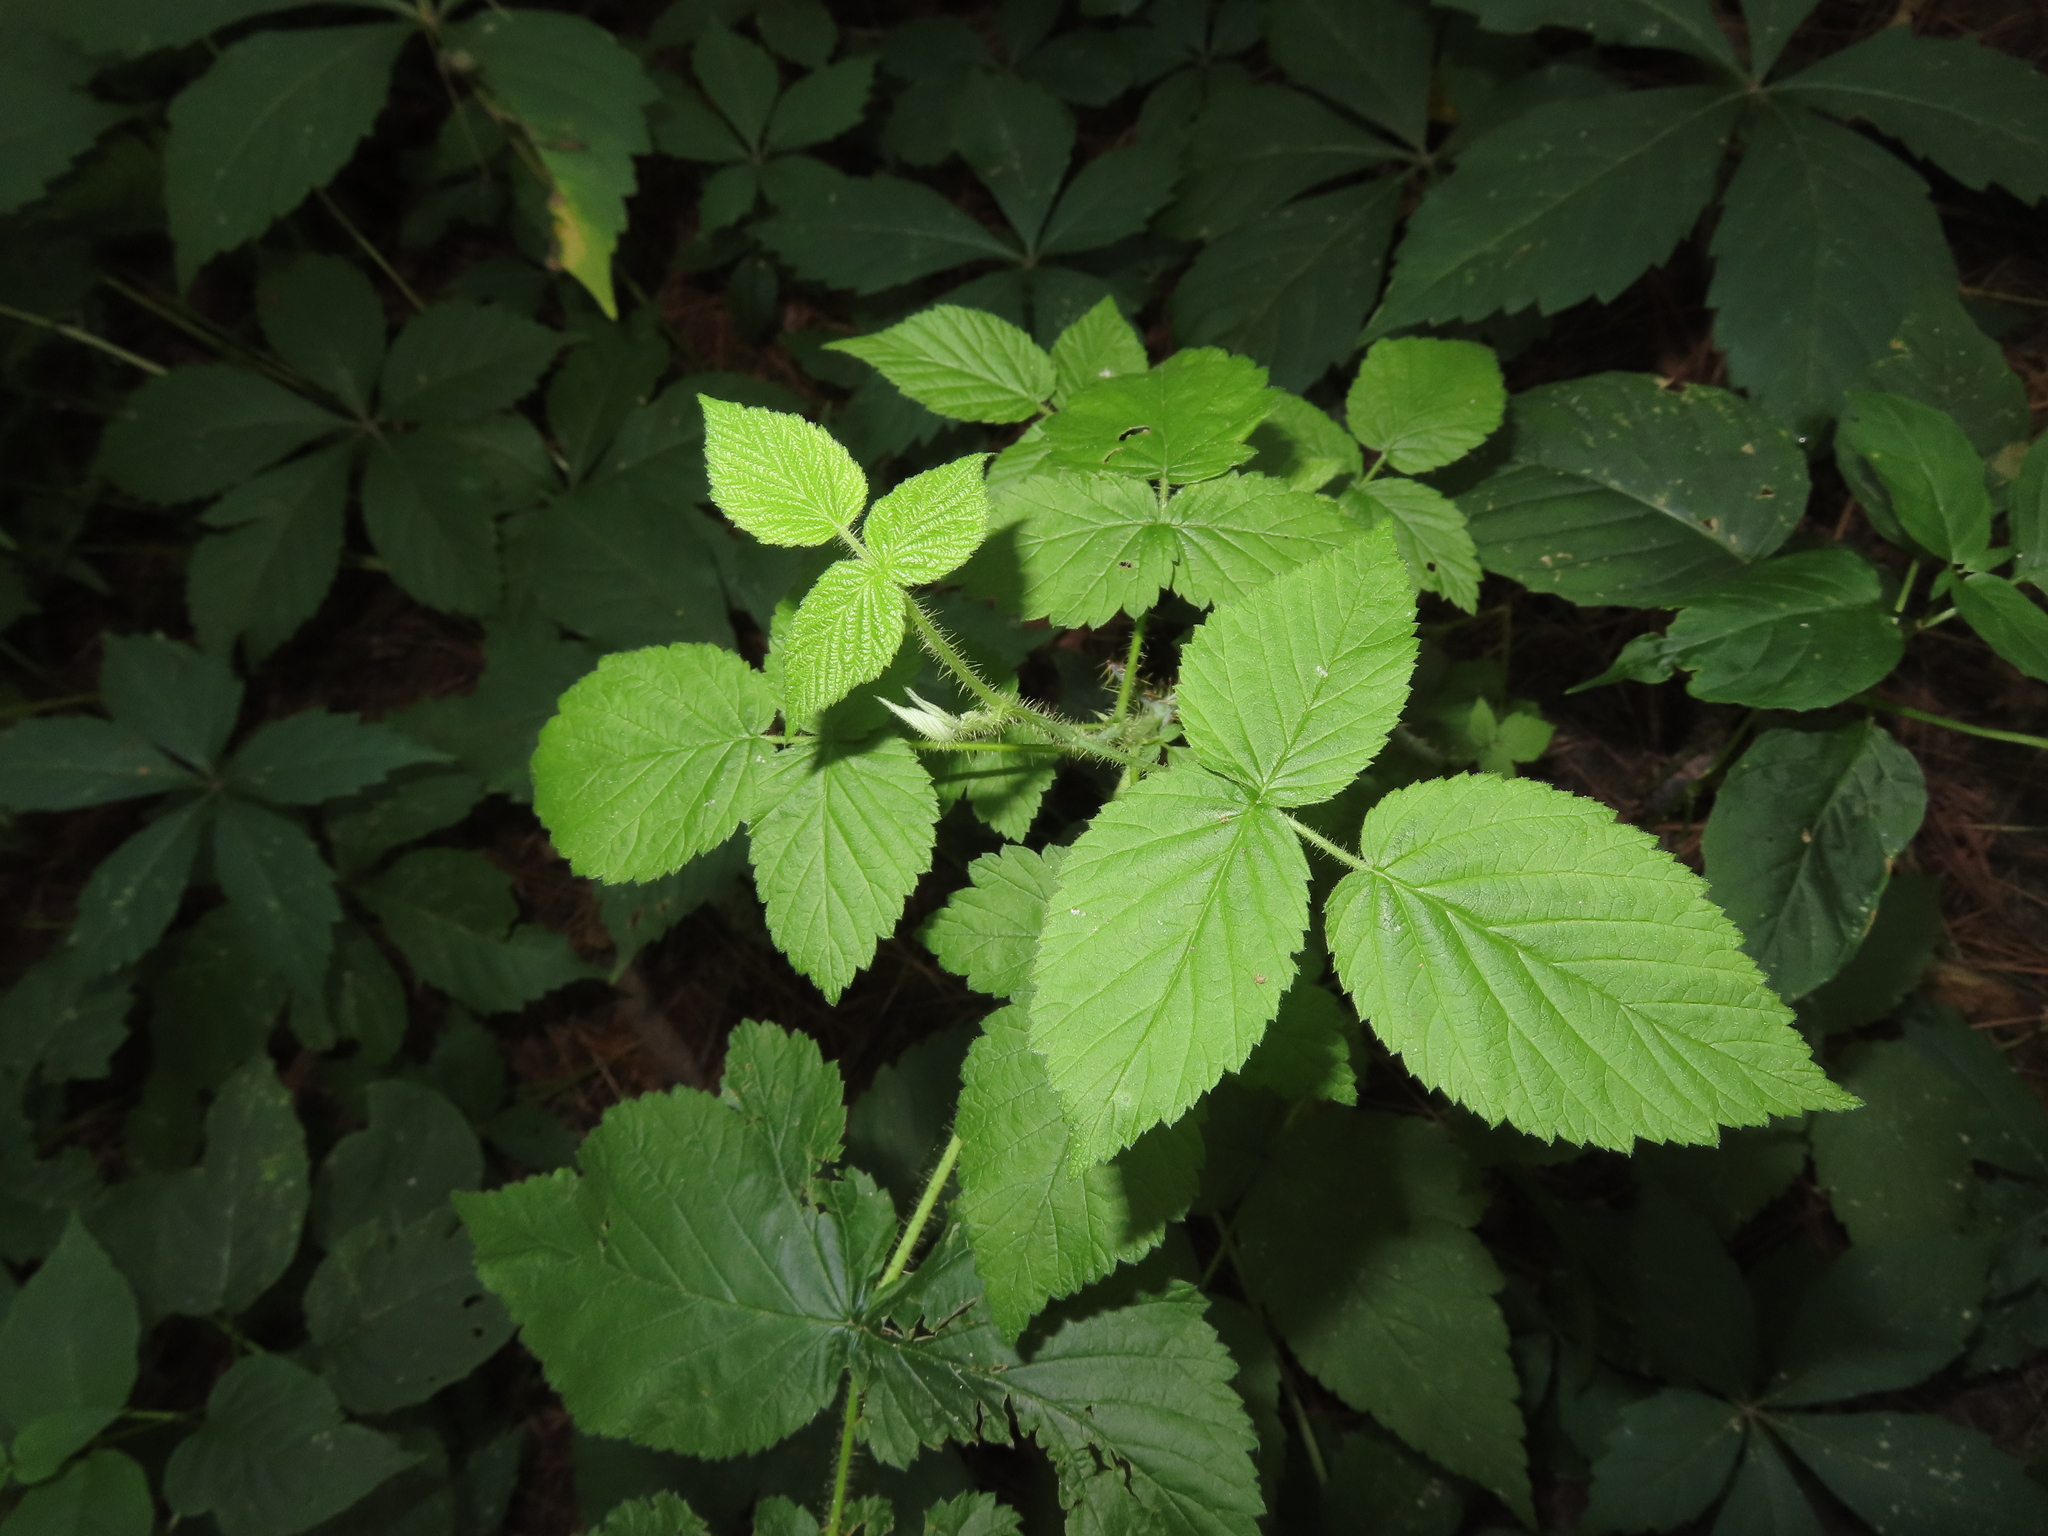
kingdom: Plantae
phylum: Tracheophyta
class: Magnoliopsida
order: Rosales
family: Rosaceae
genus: Rubus
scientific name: Rubus idaeus
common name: Raspberry
